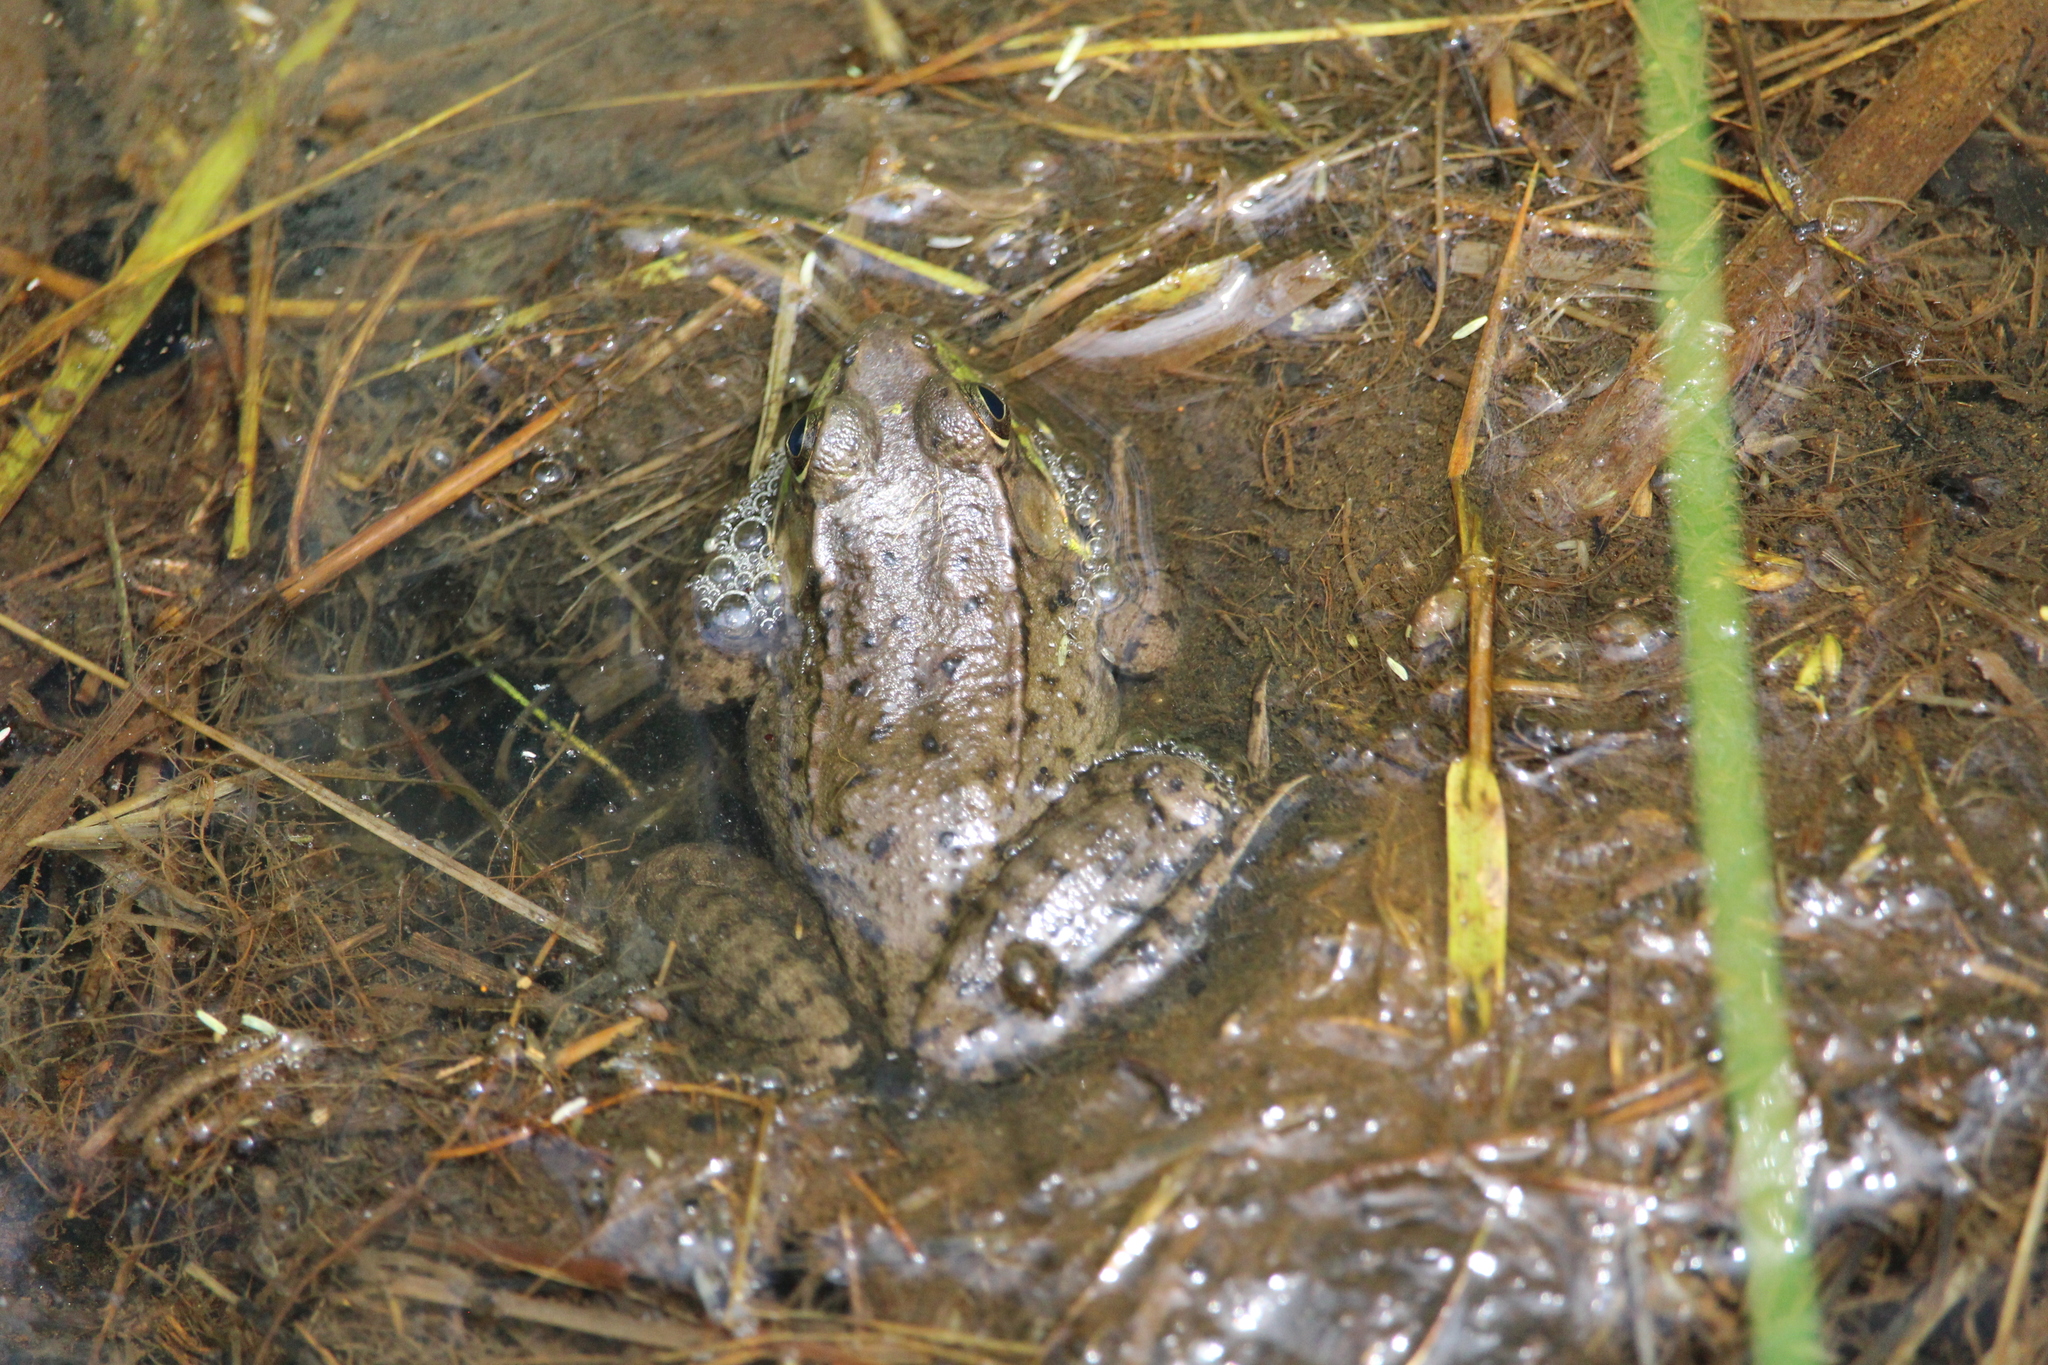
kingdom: Animalia
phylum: Chordata
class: Amphibia
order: Anura
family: Ranidae
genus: Lithobates
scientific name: Lithobates clamitans
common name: Green frog
